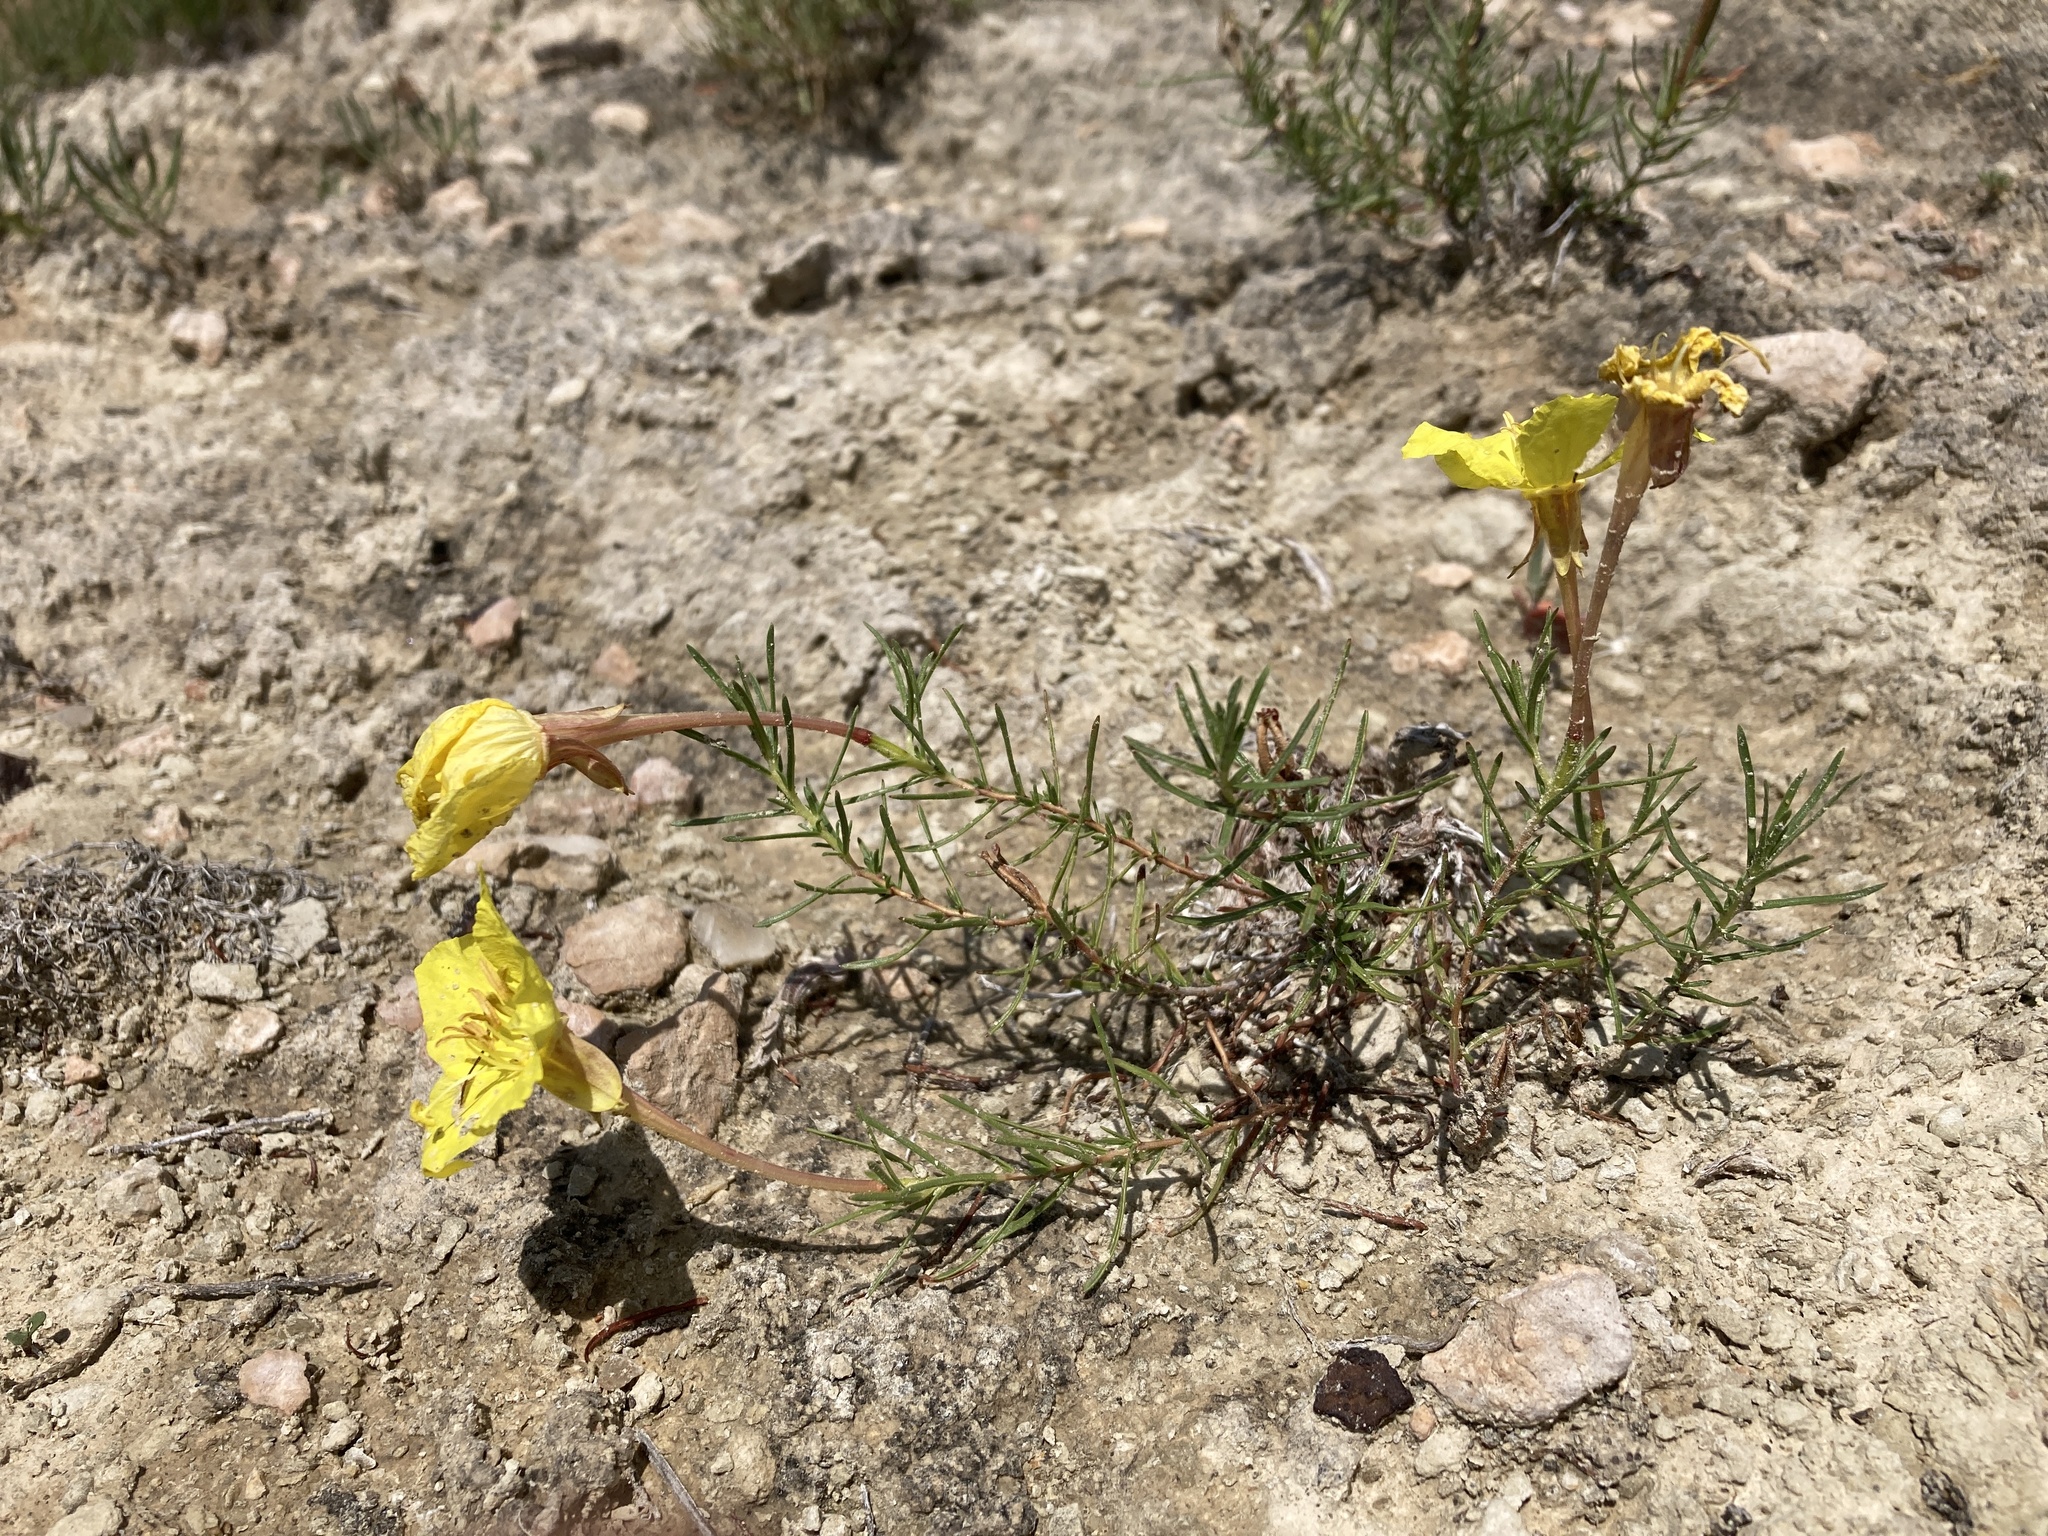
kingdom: Plantae
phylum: Tracheophyta
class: Magnoliopsida
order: Myrtales
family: Onagraceae
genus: Oenothera
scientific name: Oenothera hartwegii
